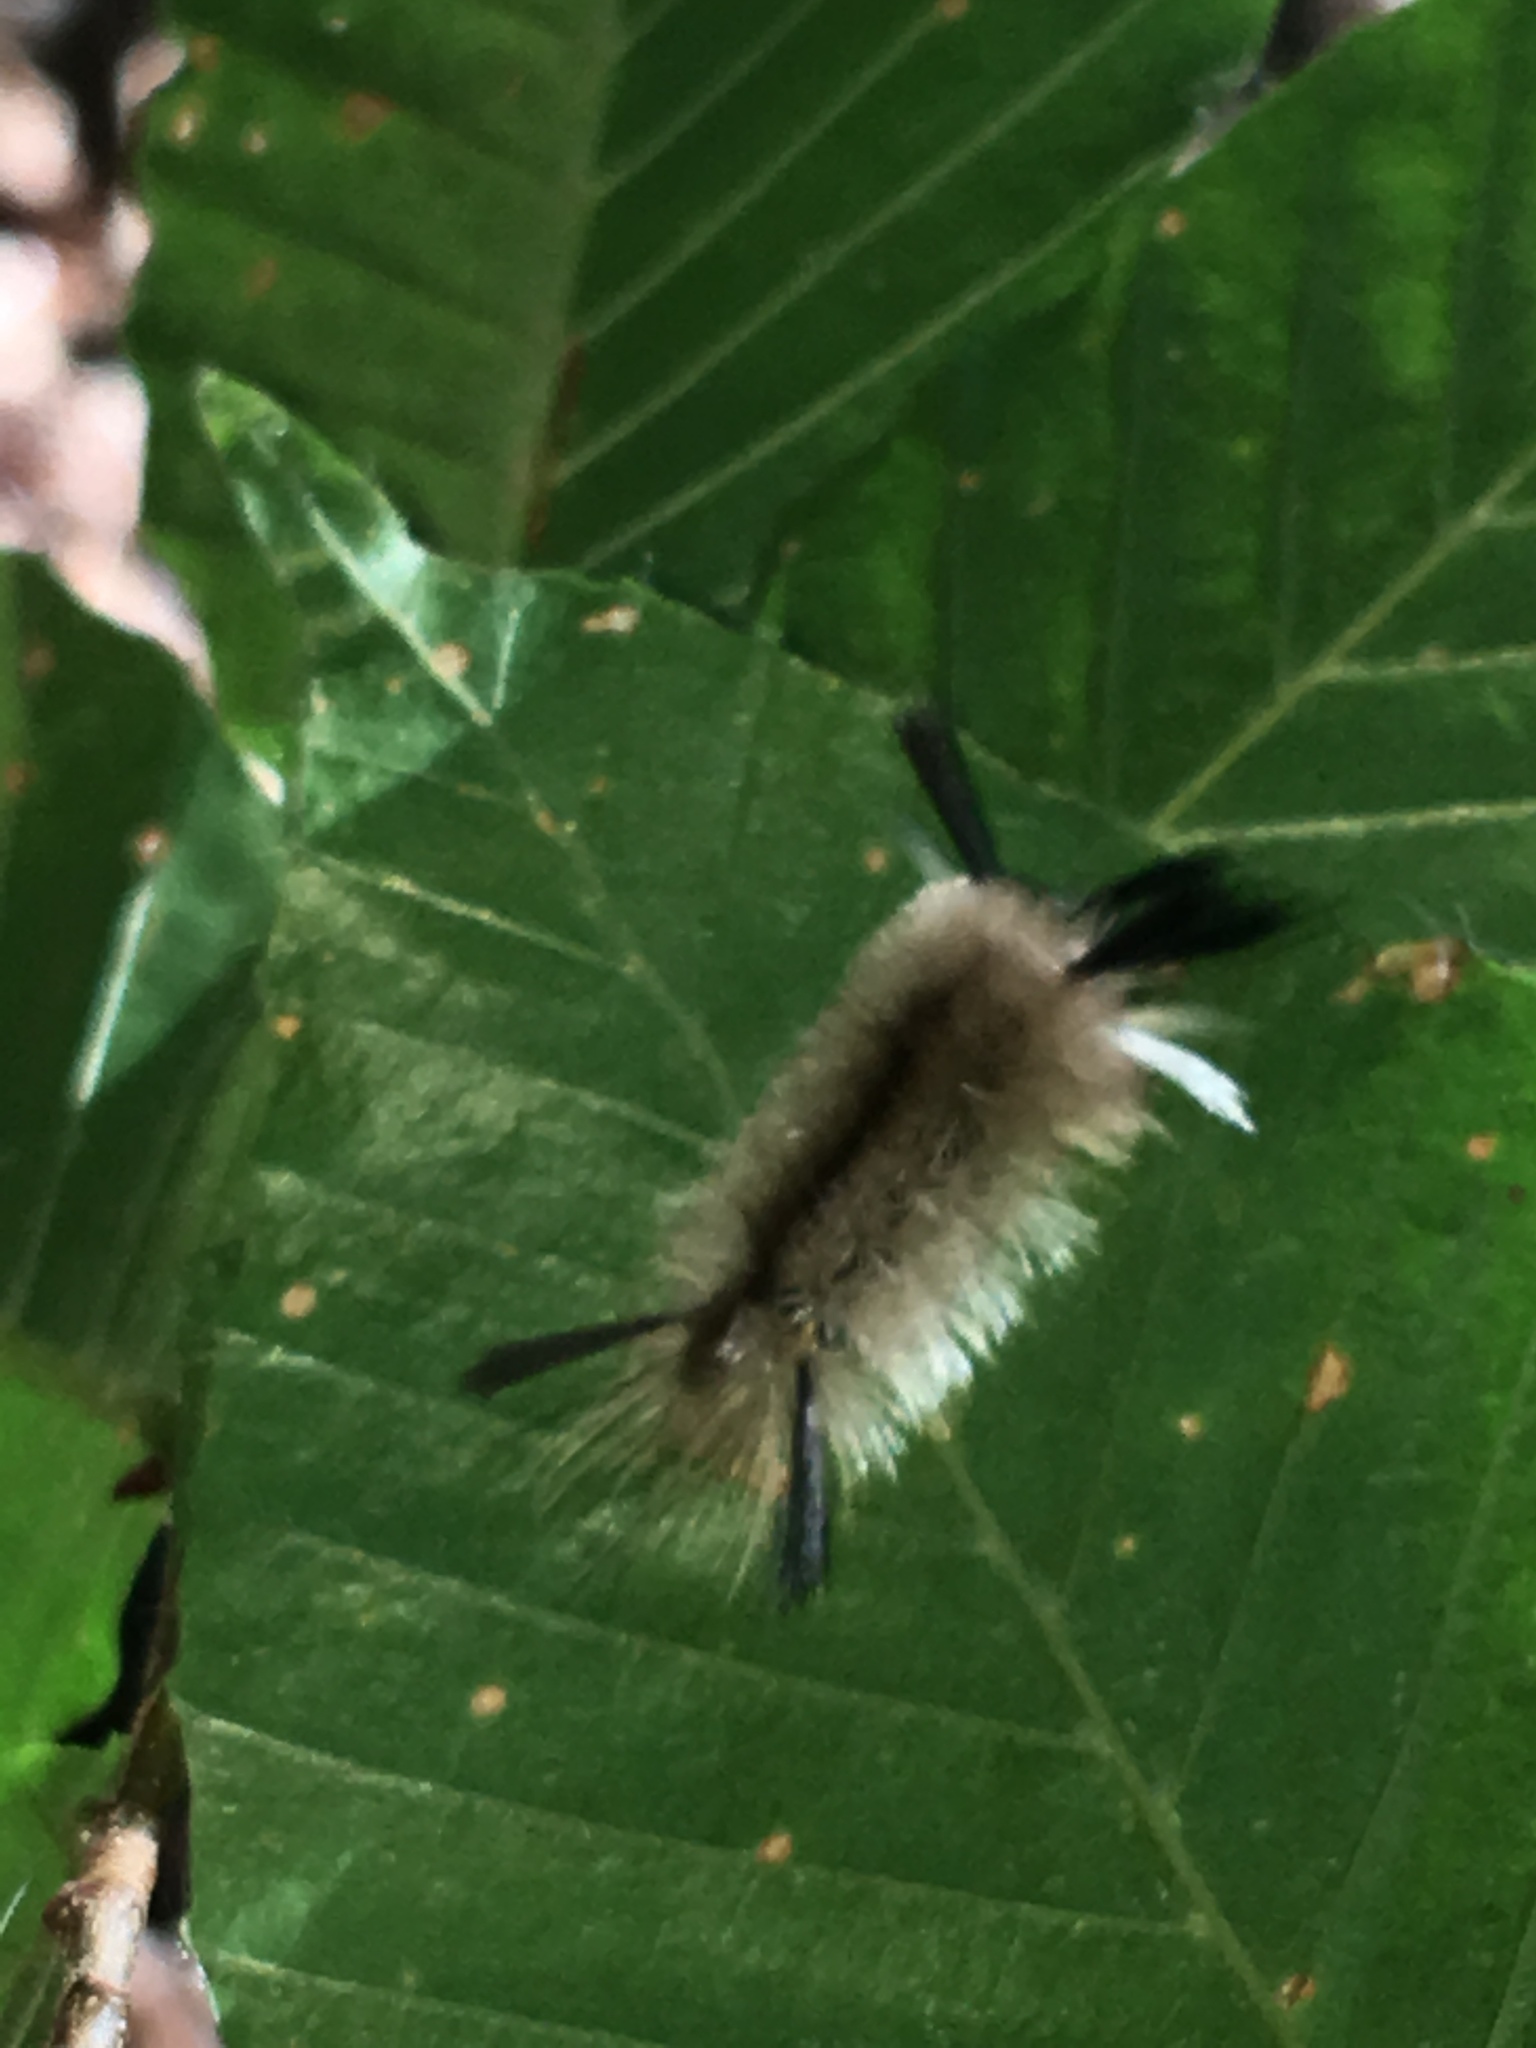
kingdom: Animalia
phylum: Arthropoda
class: Insecta
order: Lepidoptera
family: Erebidae
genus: Halysidota
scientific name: Halysidota tessellaris
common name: Banded tussock moth
